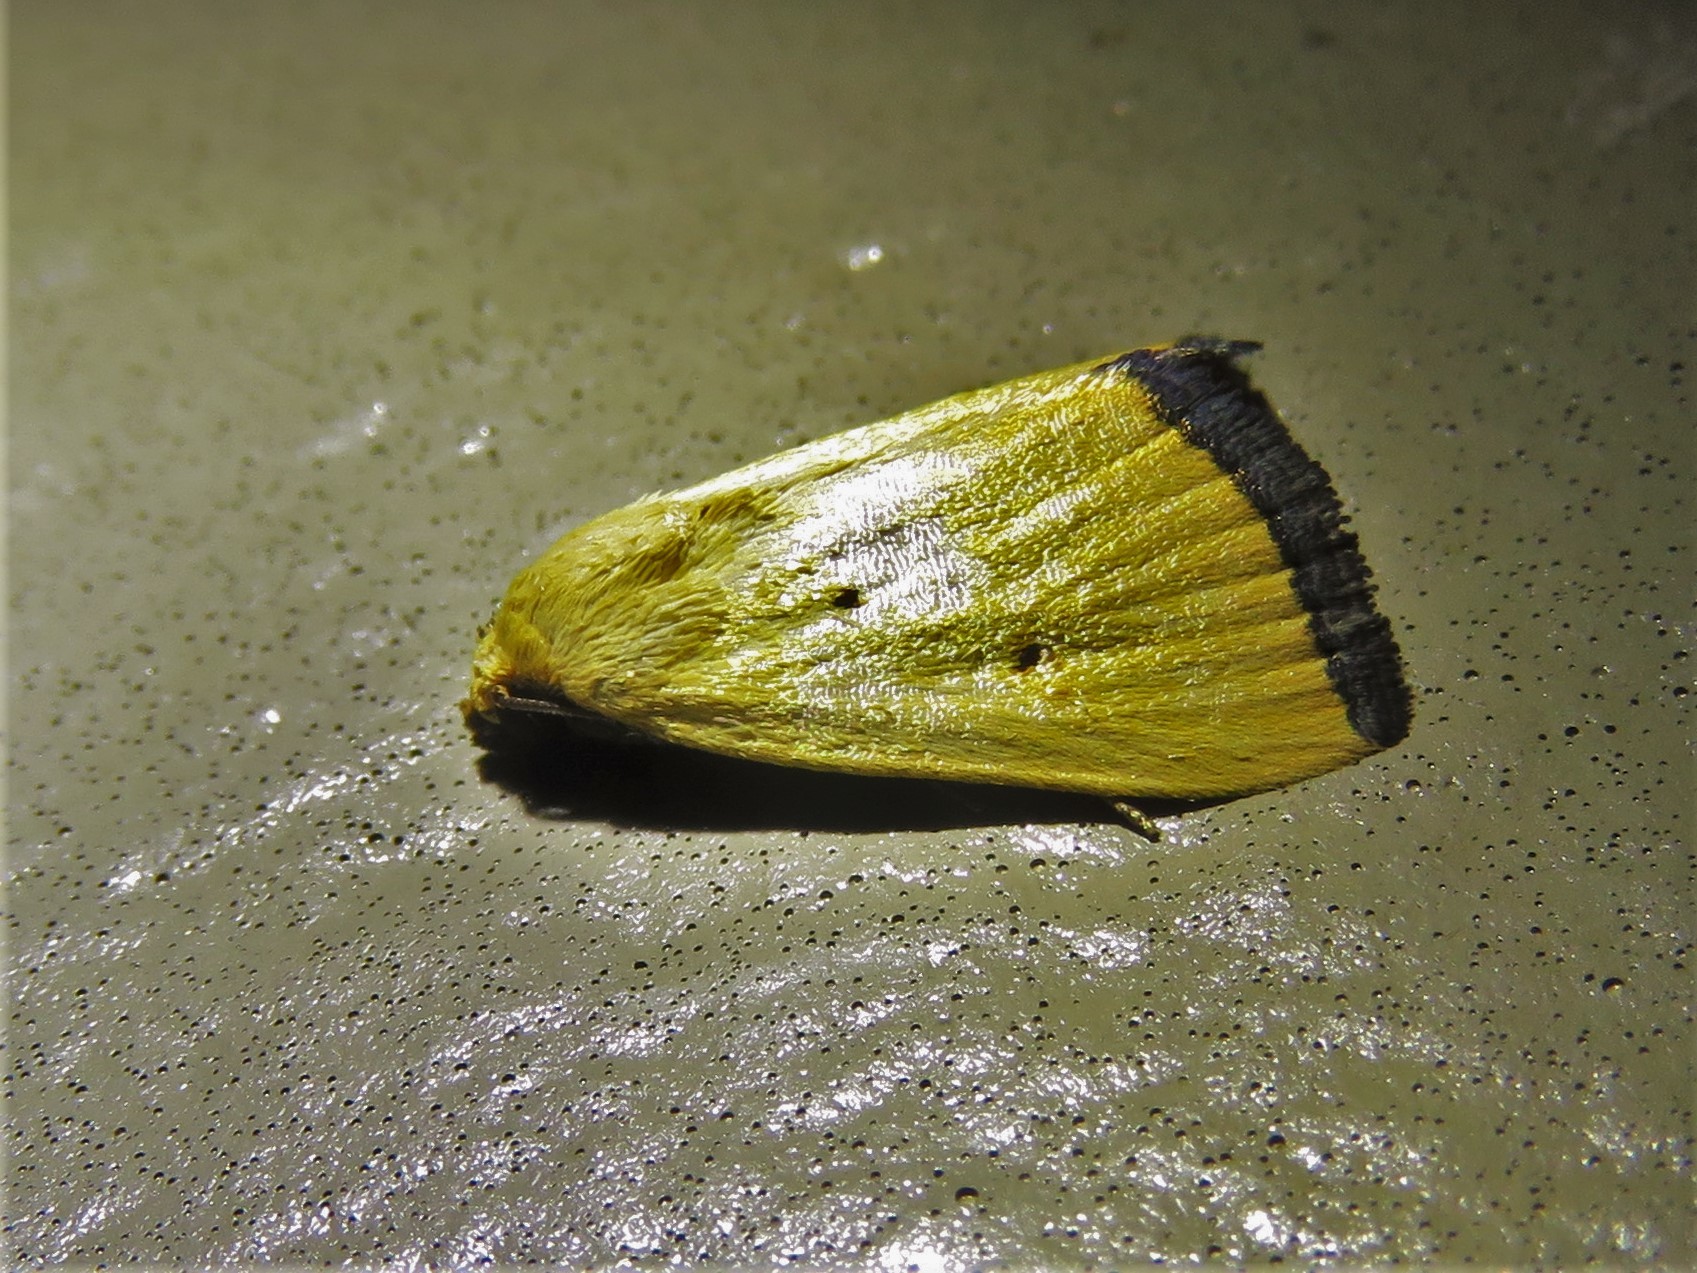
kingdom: Animalia
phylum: Arthropoda
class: Insecta
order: Lepidoptera
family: Noctuidae
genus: Marimatha
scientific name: Marimatha nigrofimbria
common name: Black-bordered lemon moth
